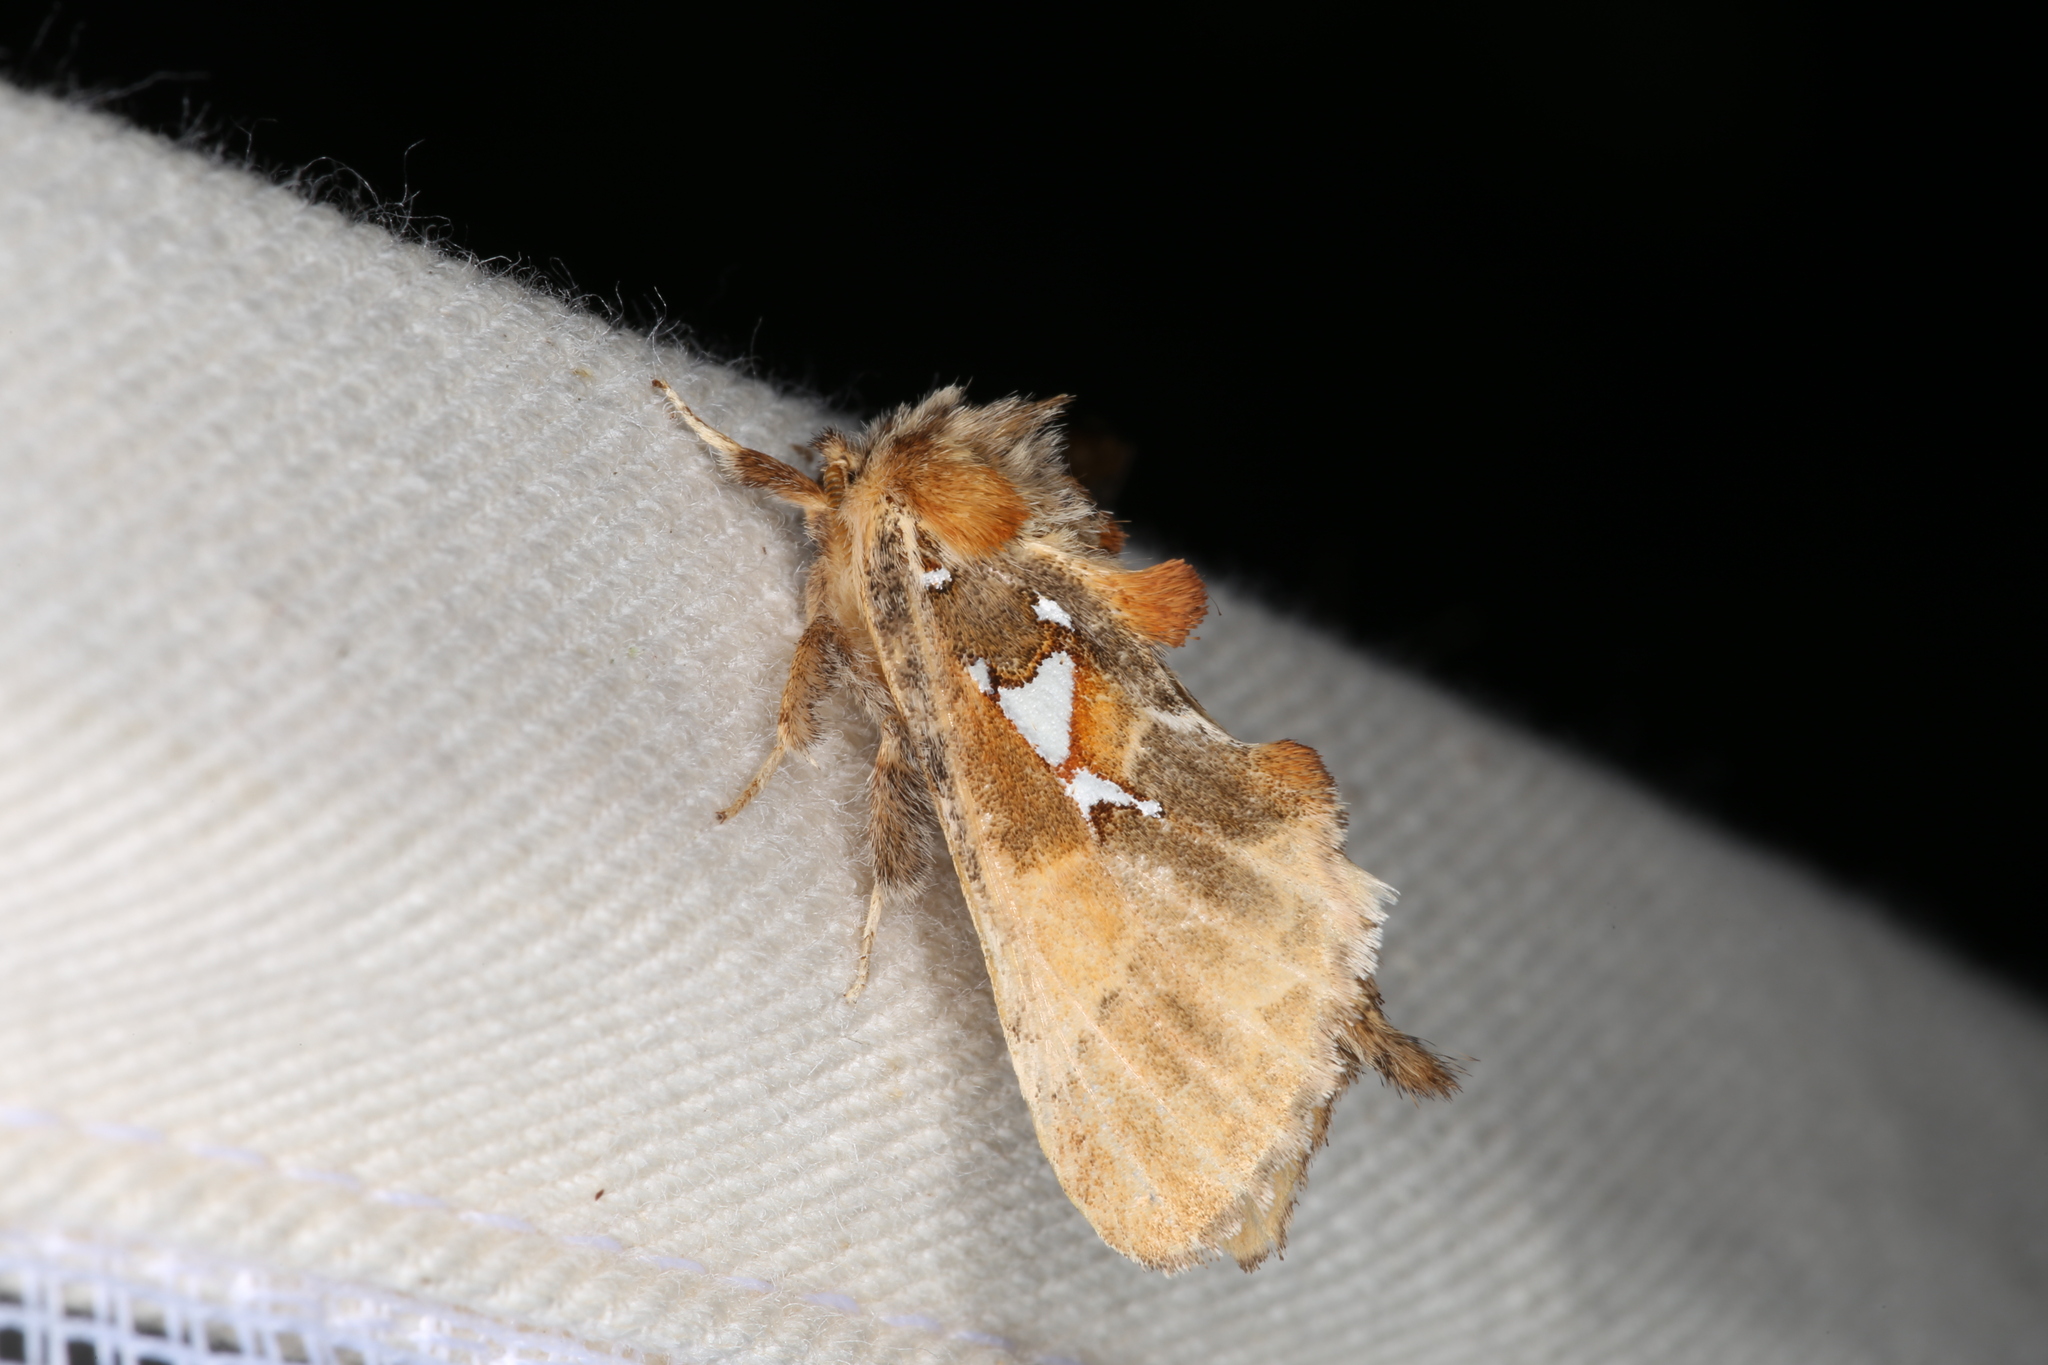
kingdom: Animalia
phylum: Arthropoda
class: Insecta
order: Lepidoptera
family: Notodontidae
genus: Spatalia
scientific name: Spatalia argentina
